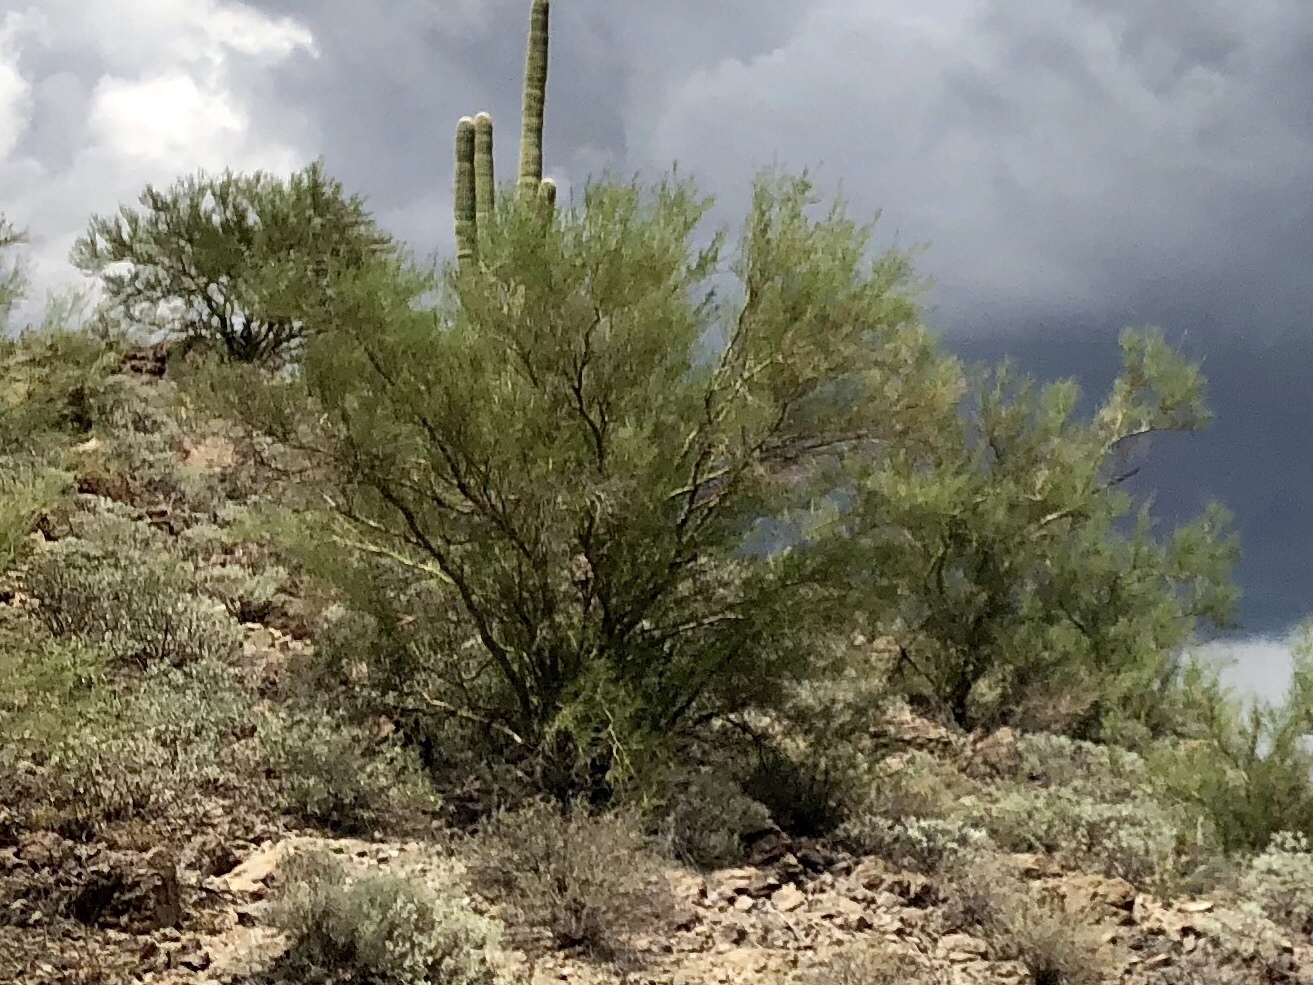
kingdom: Plantae
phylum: Tracheophyta
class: Magnoliopsida
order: Fabales
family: Fabaceae
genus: Parkinsonia
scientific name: Parkinsonia microphylla
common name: Yellow paloverde
